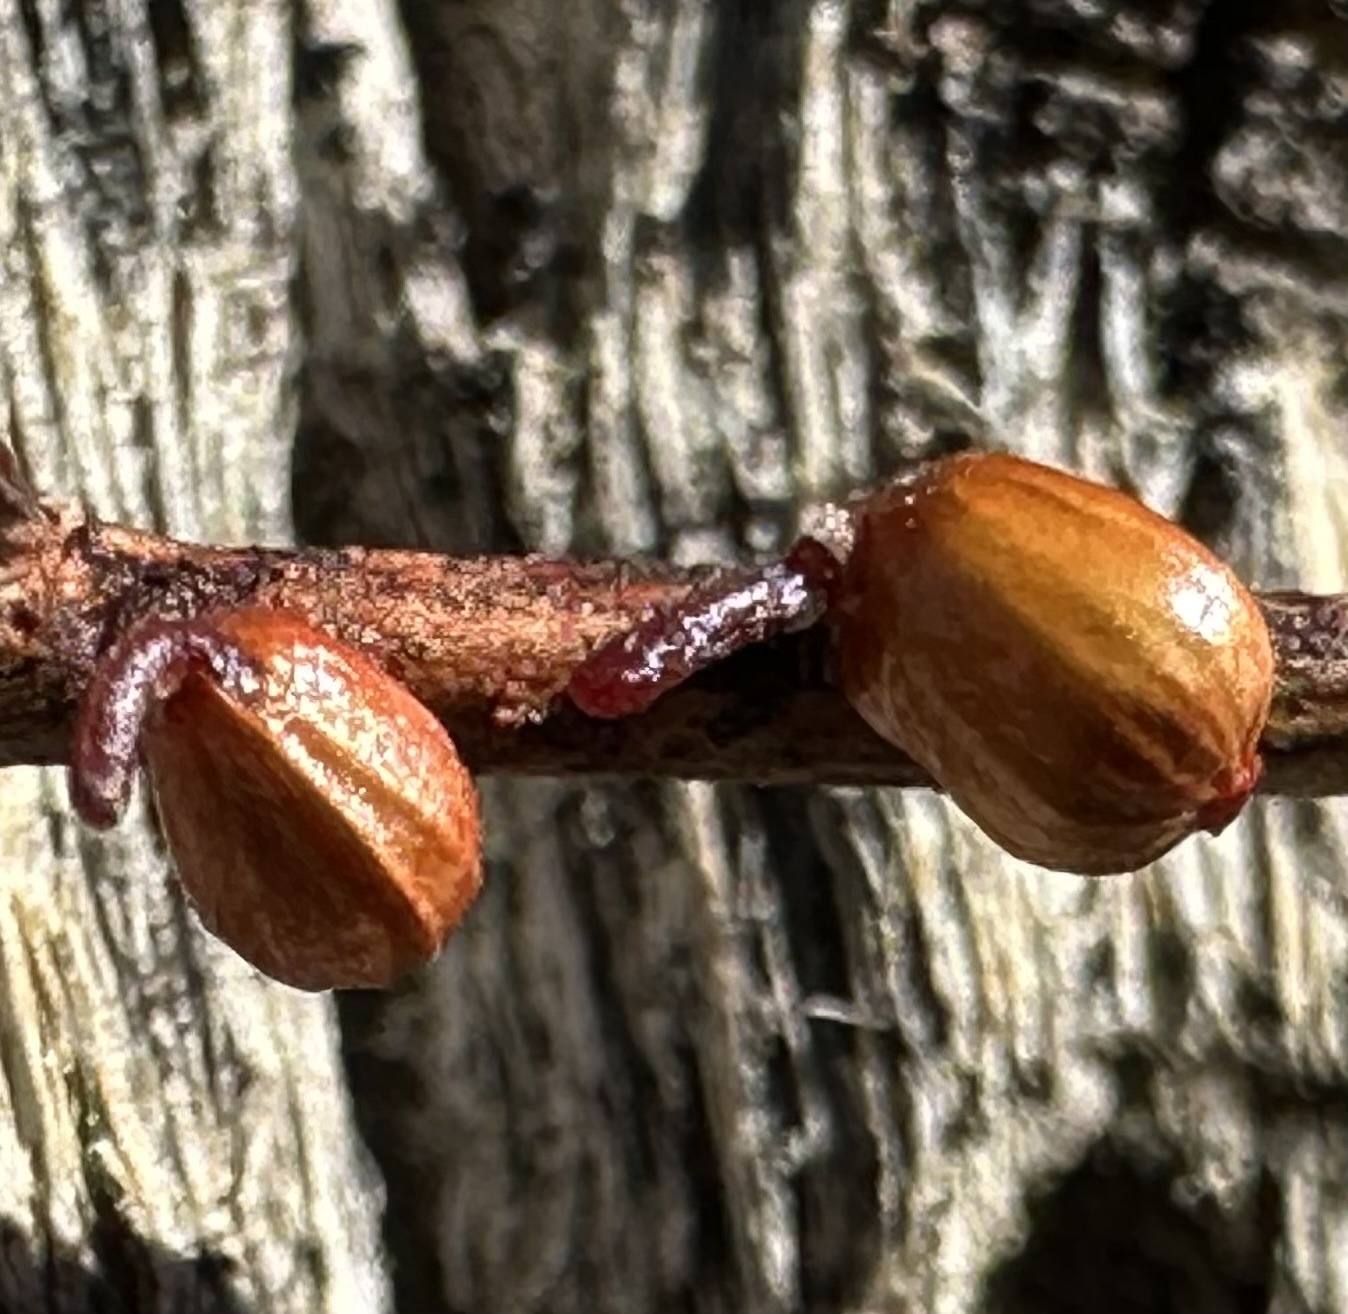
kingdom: Plantae
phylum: Tracheophyta
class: Magnoliopsida
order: Santalales
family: Viscaceae
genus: Phoradendron
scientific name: Phoradendron californicum
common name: Acacia mistletoe
